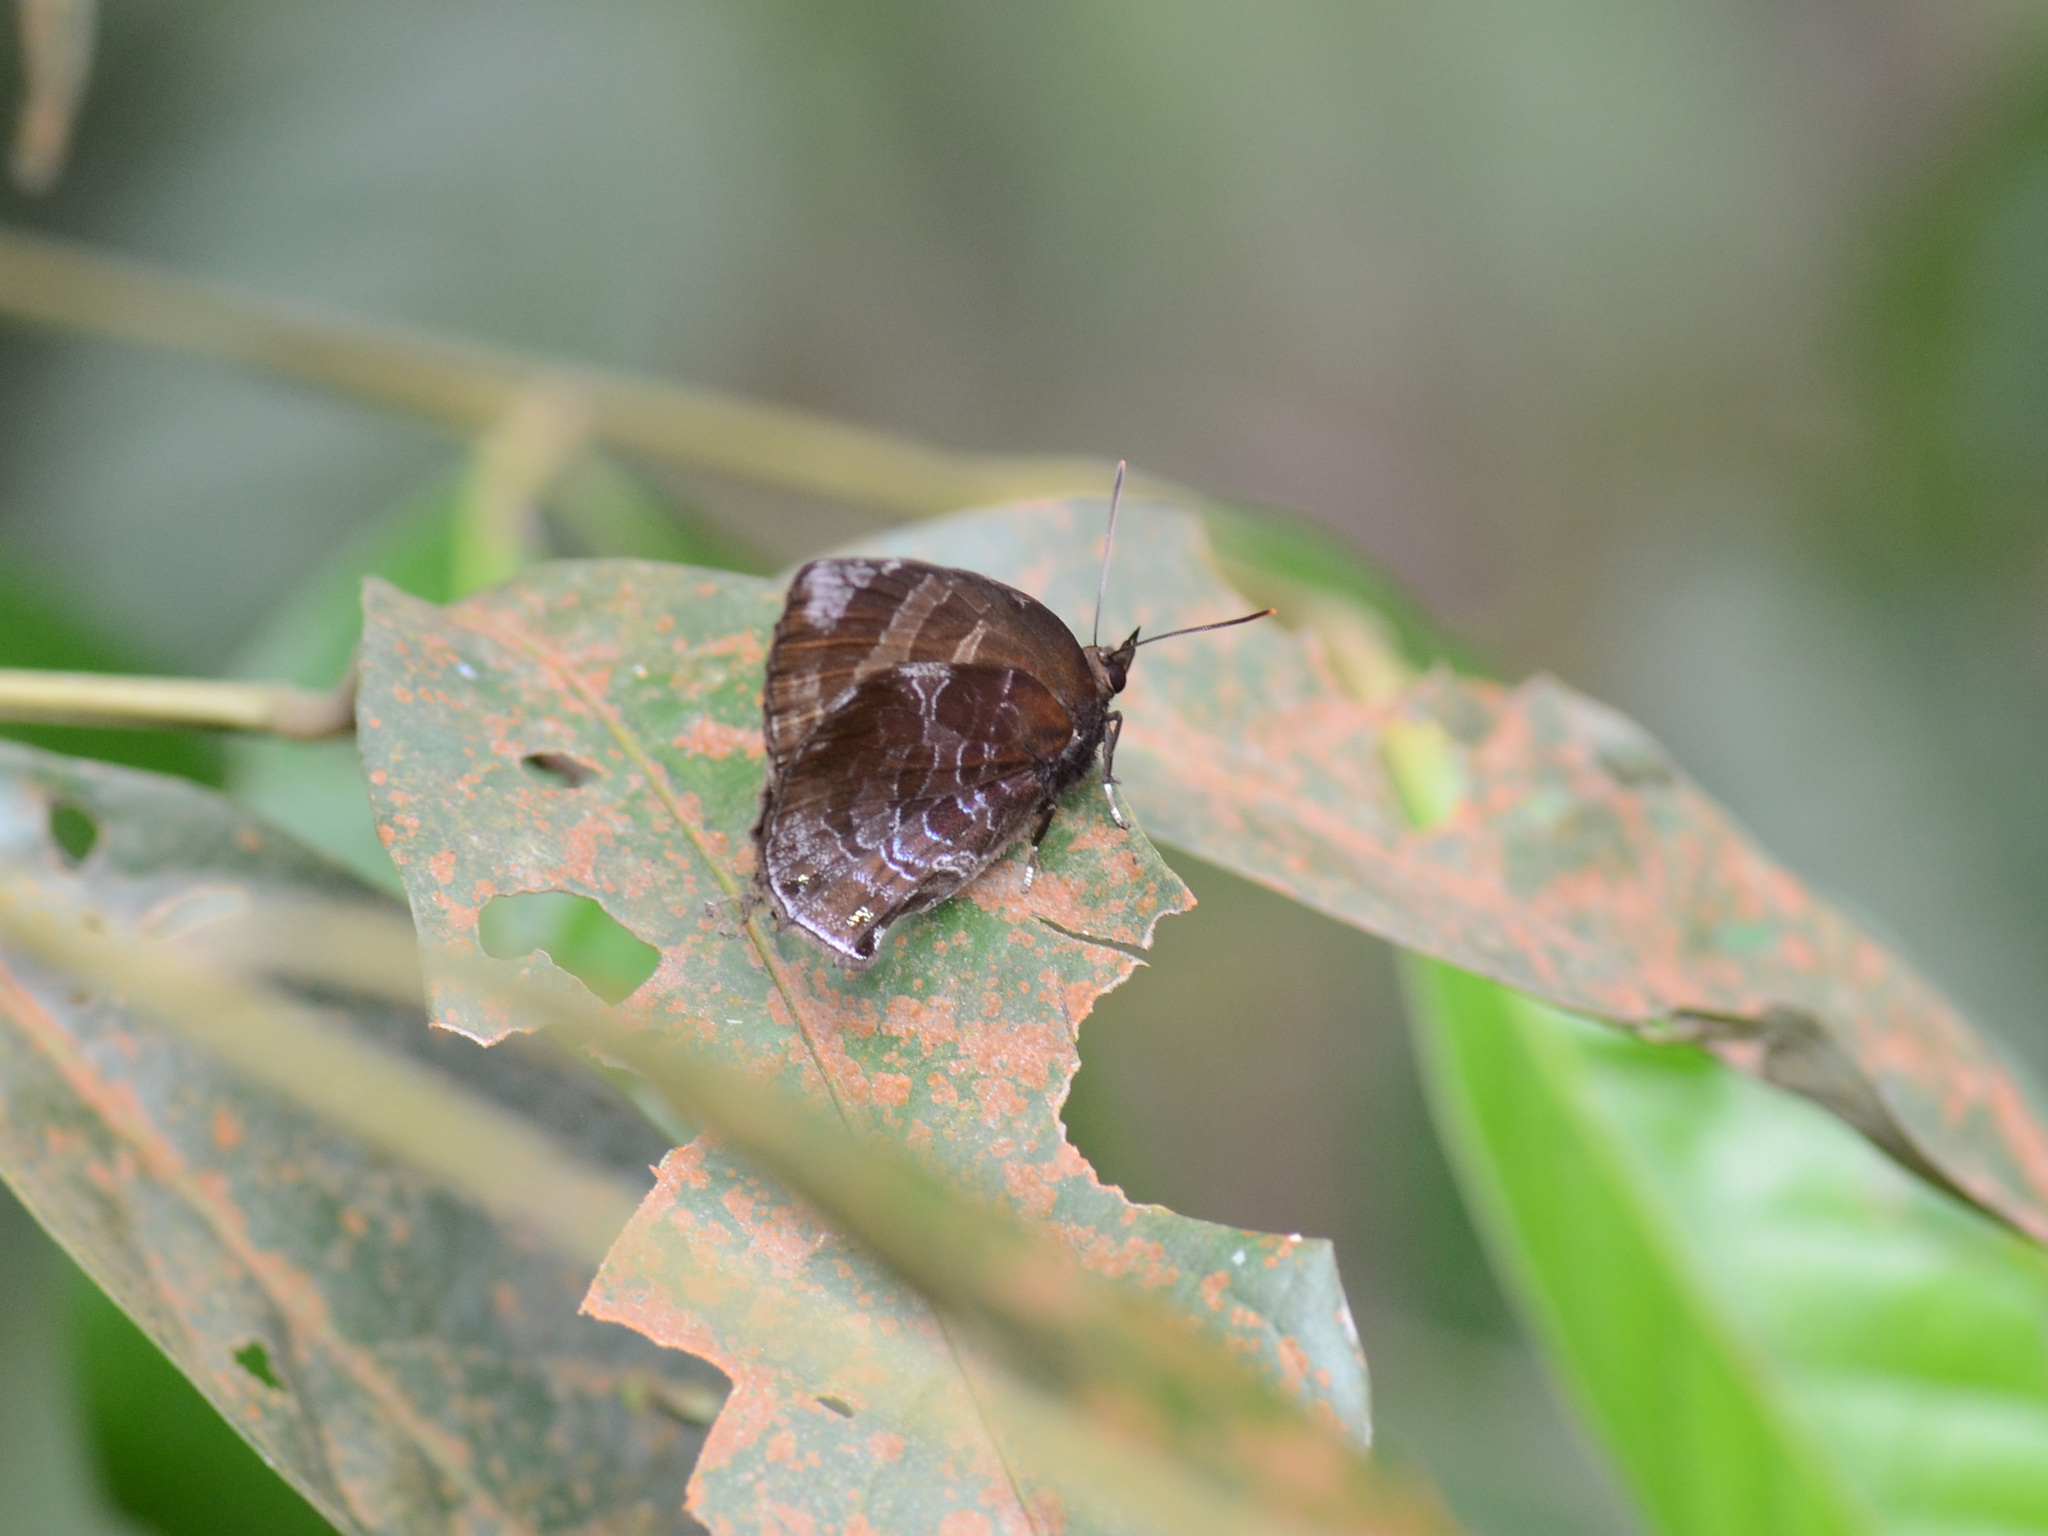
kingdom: Animalia
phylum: Arthropoda
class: Insecta
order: Lepidoptera
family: Lycaenidae
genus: Flos
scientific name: Flos
